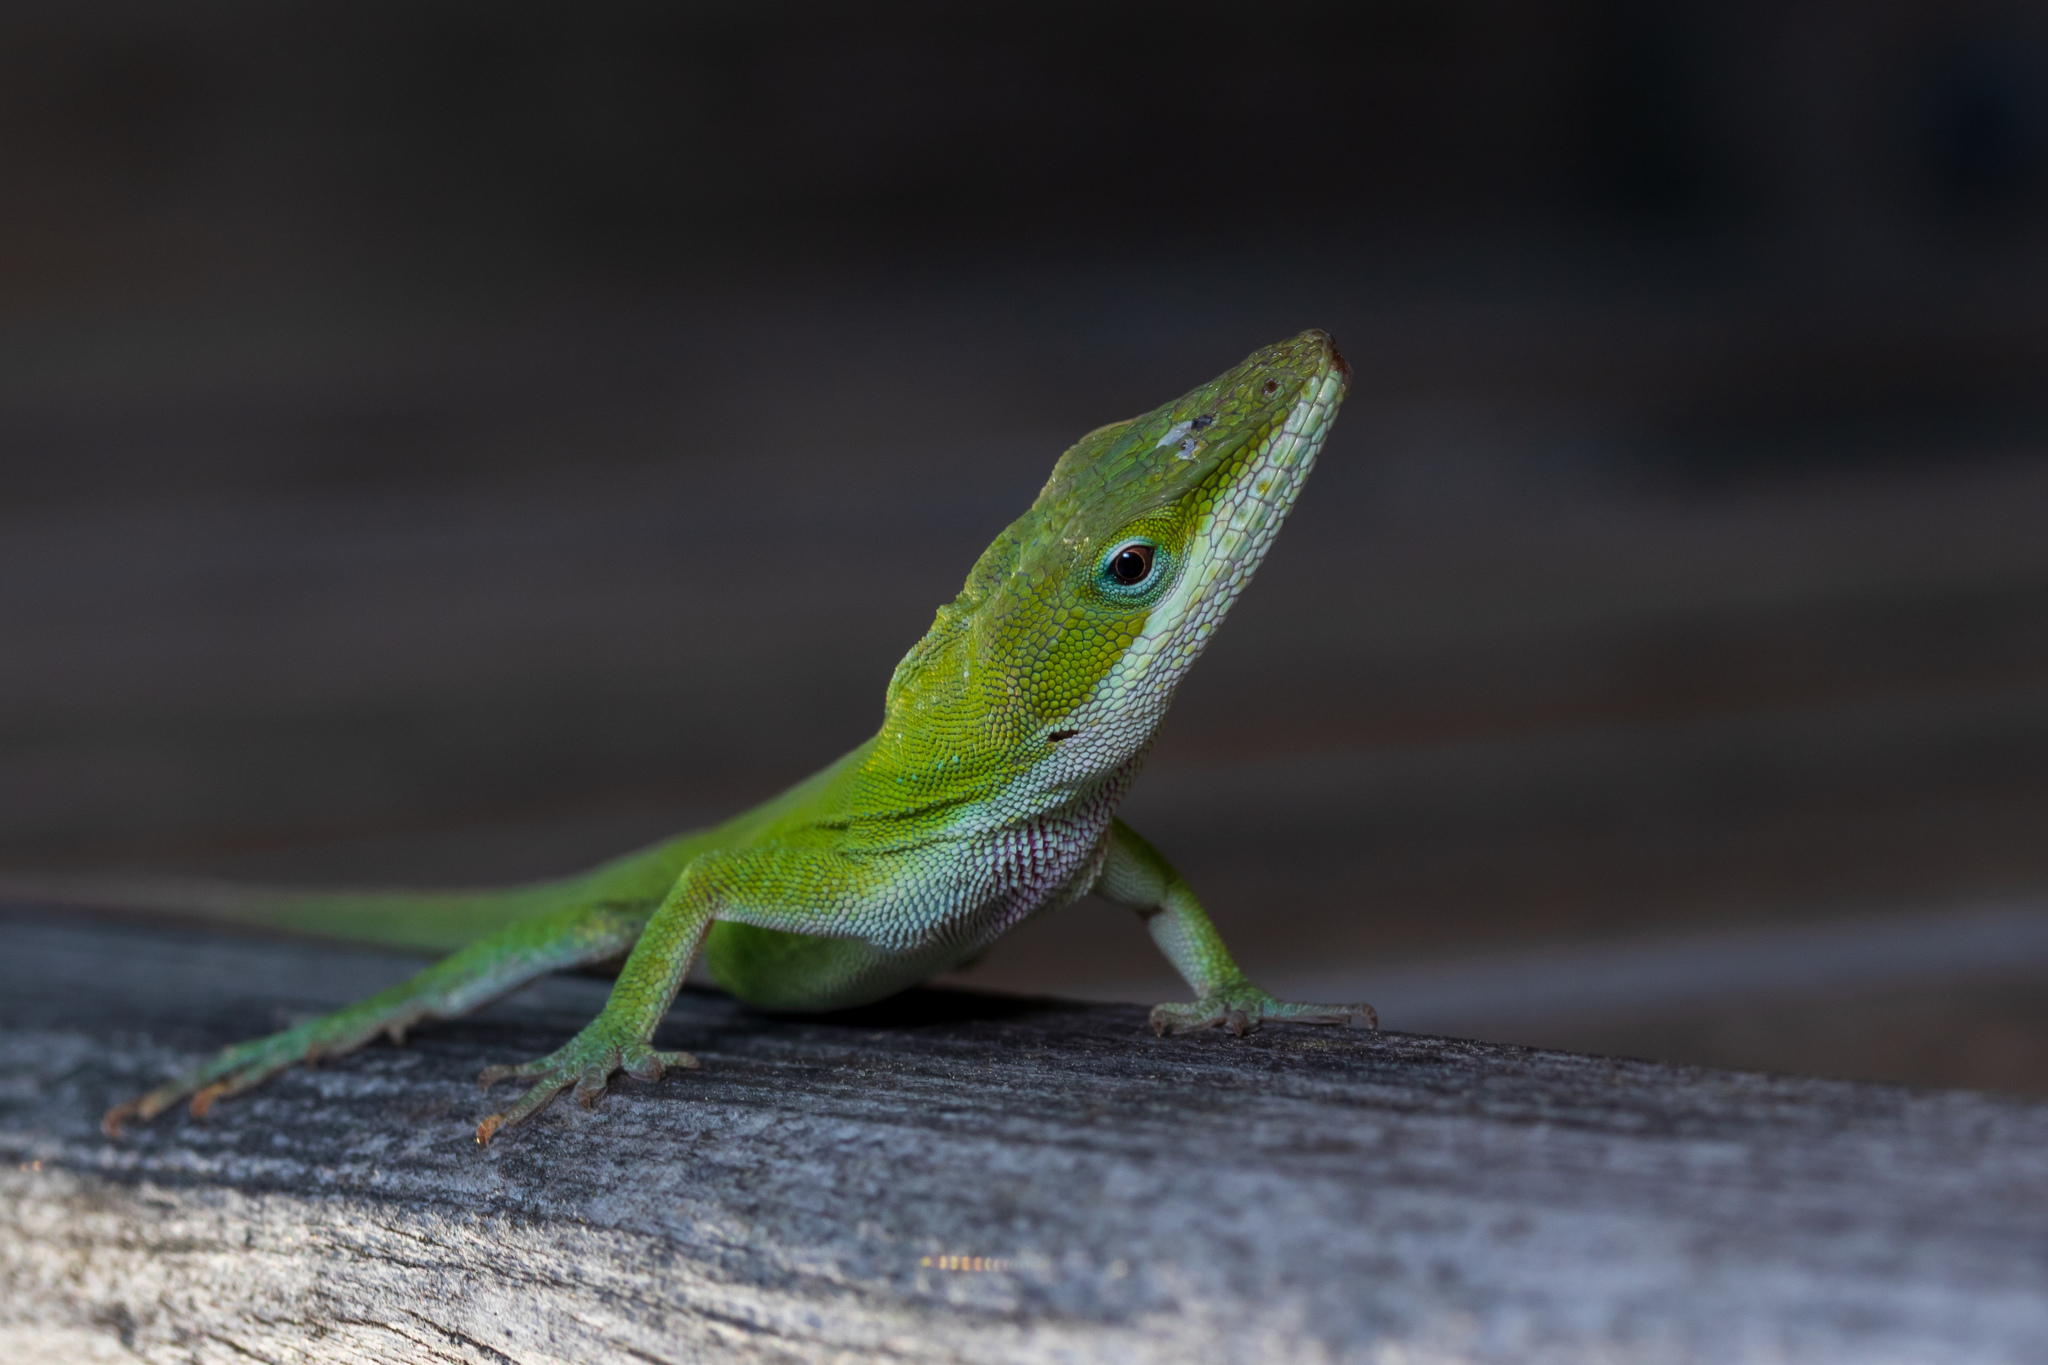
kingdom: Animalia
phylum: Chordata
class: Squamata
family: Dactyloidae
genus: Anolis
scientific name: Anolis carolinensis
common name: Green anole
